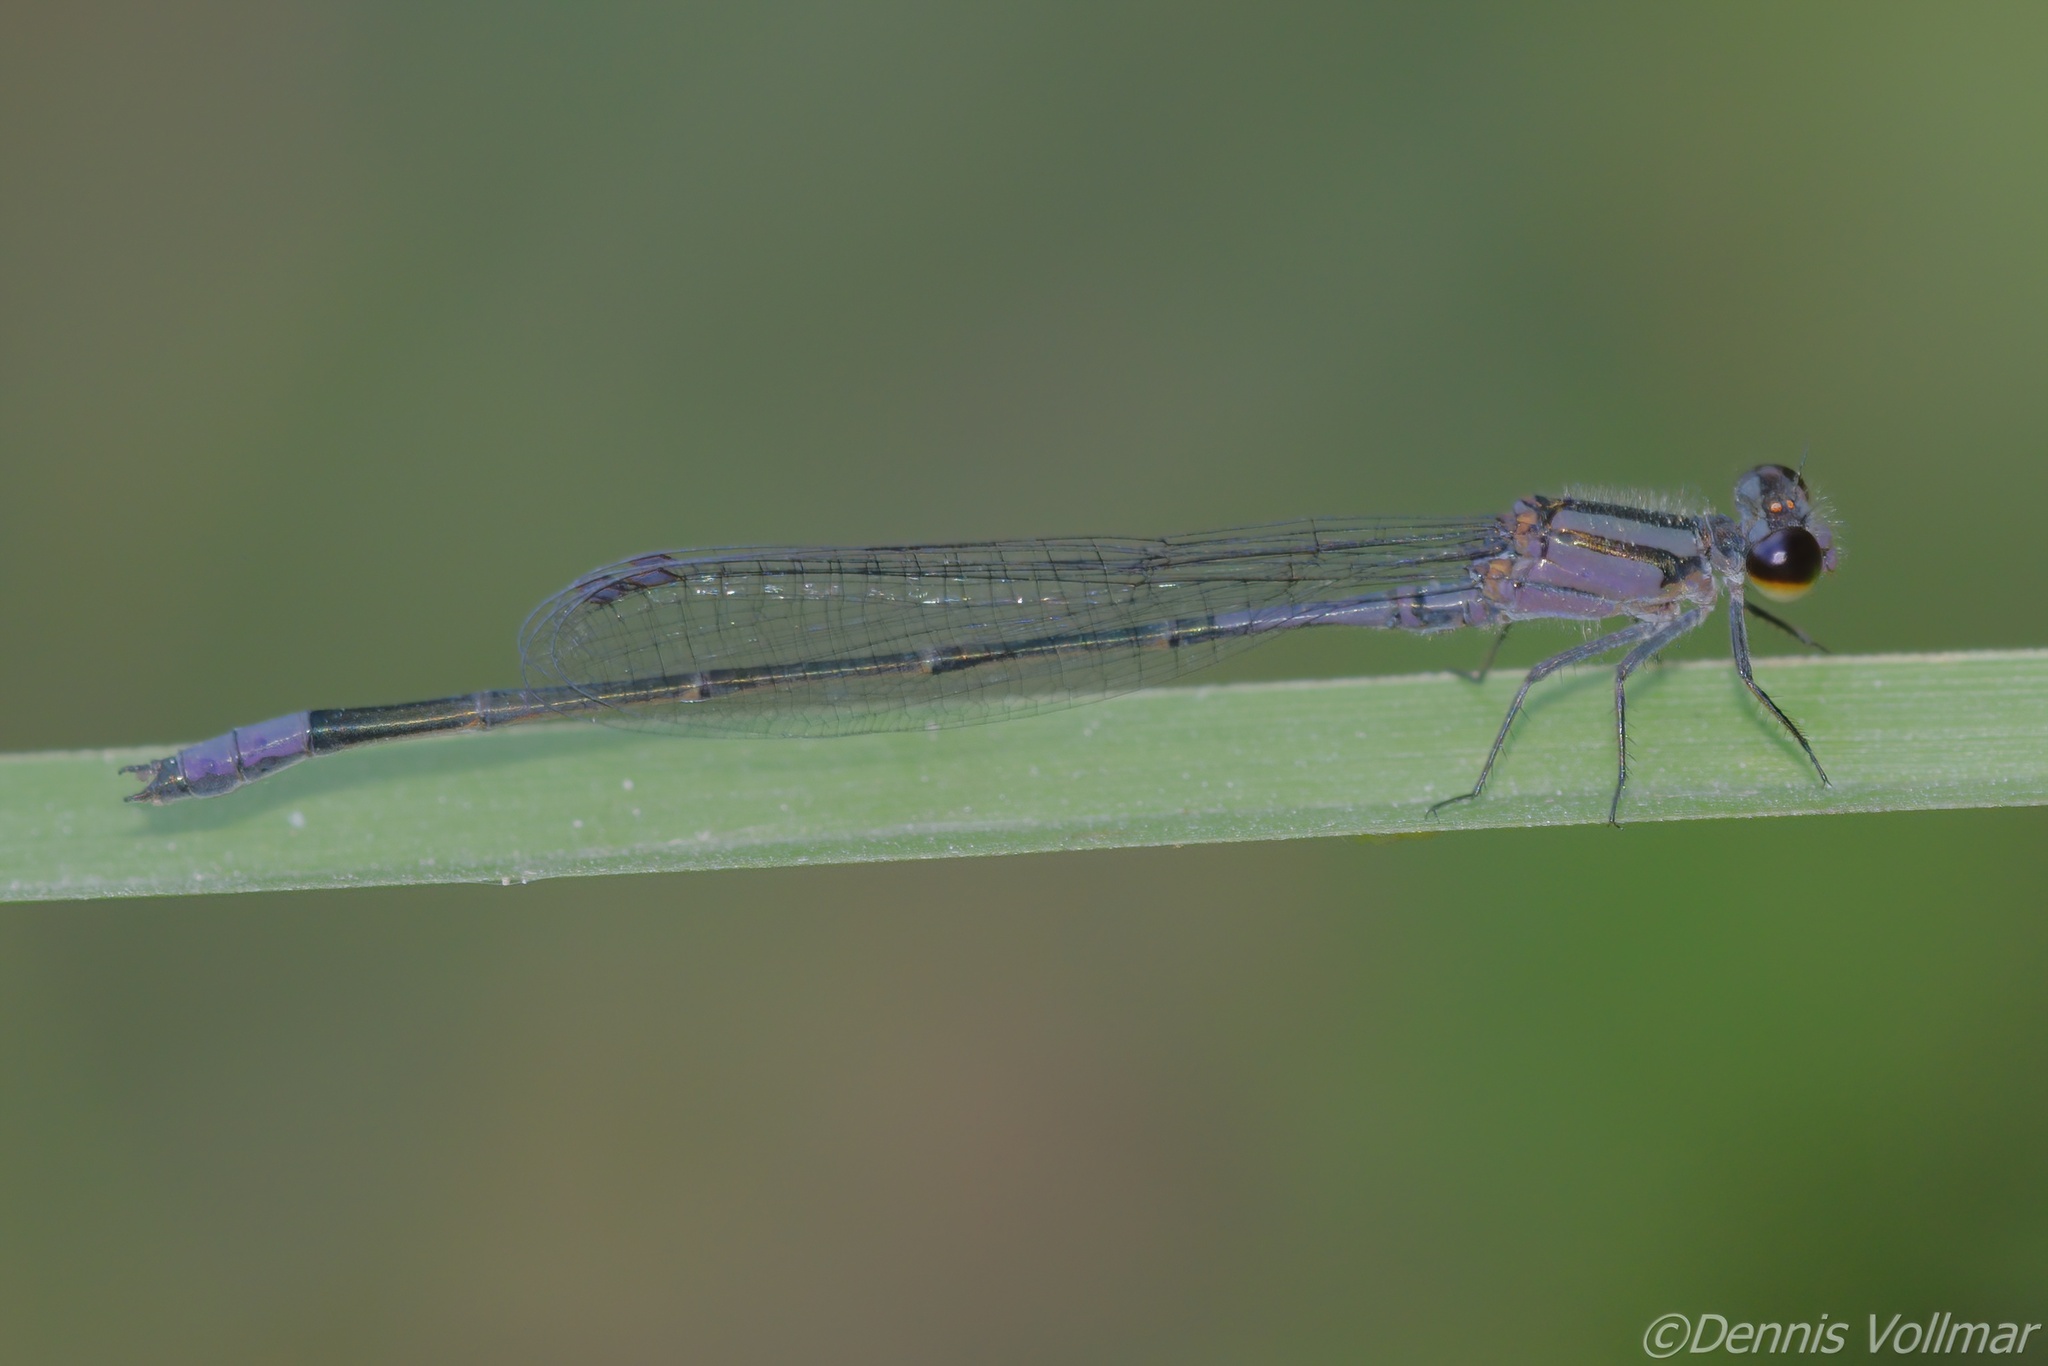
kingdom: Animalia
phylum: Arthropoda
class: Insecta
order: Odonata
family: Coenagrionidae
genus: Enallagma
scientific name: Enallagma cardenium
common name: Purple bluet
